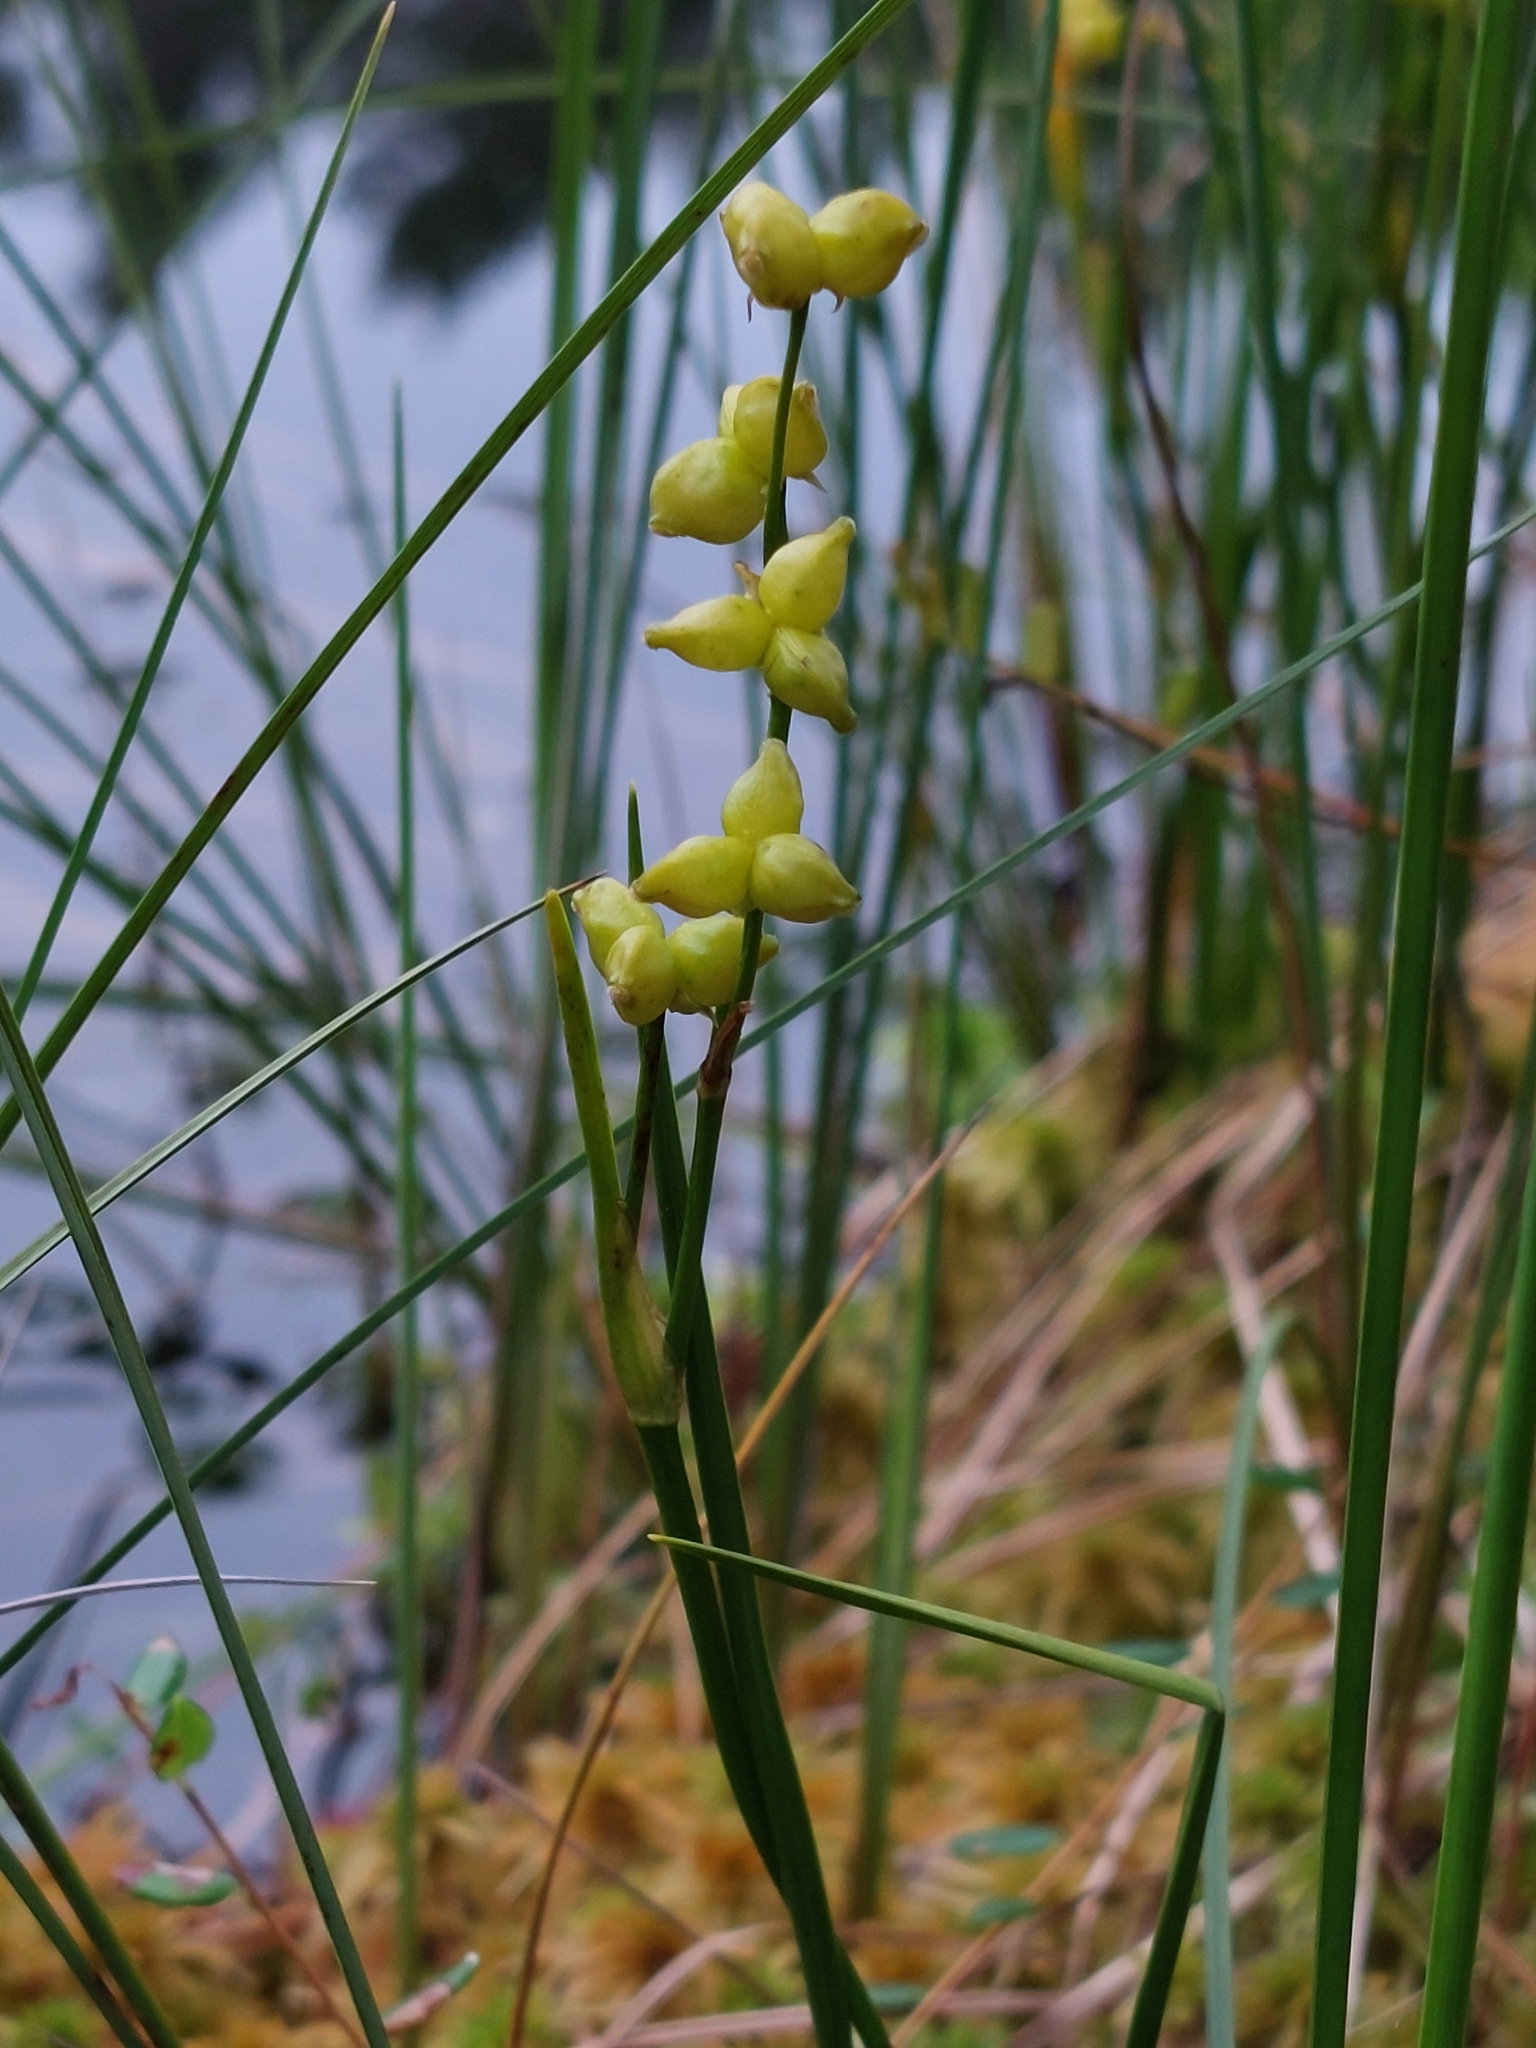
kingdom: Plantae
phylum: Tracheophyta
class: Liliopsida
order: Alismatales
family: Scheuchzeriaceae
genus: Scheuchzeria
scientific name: Scheuchzeria palustris
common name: Rannoch-rush
